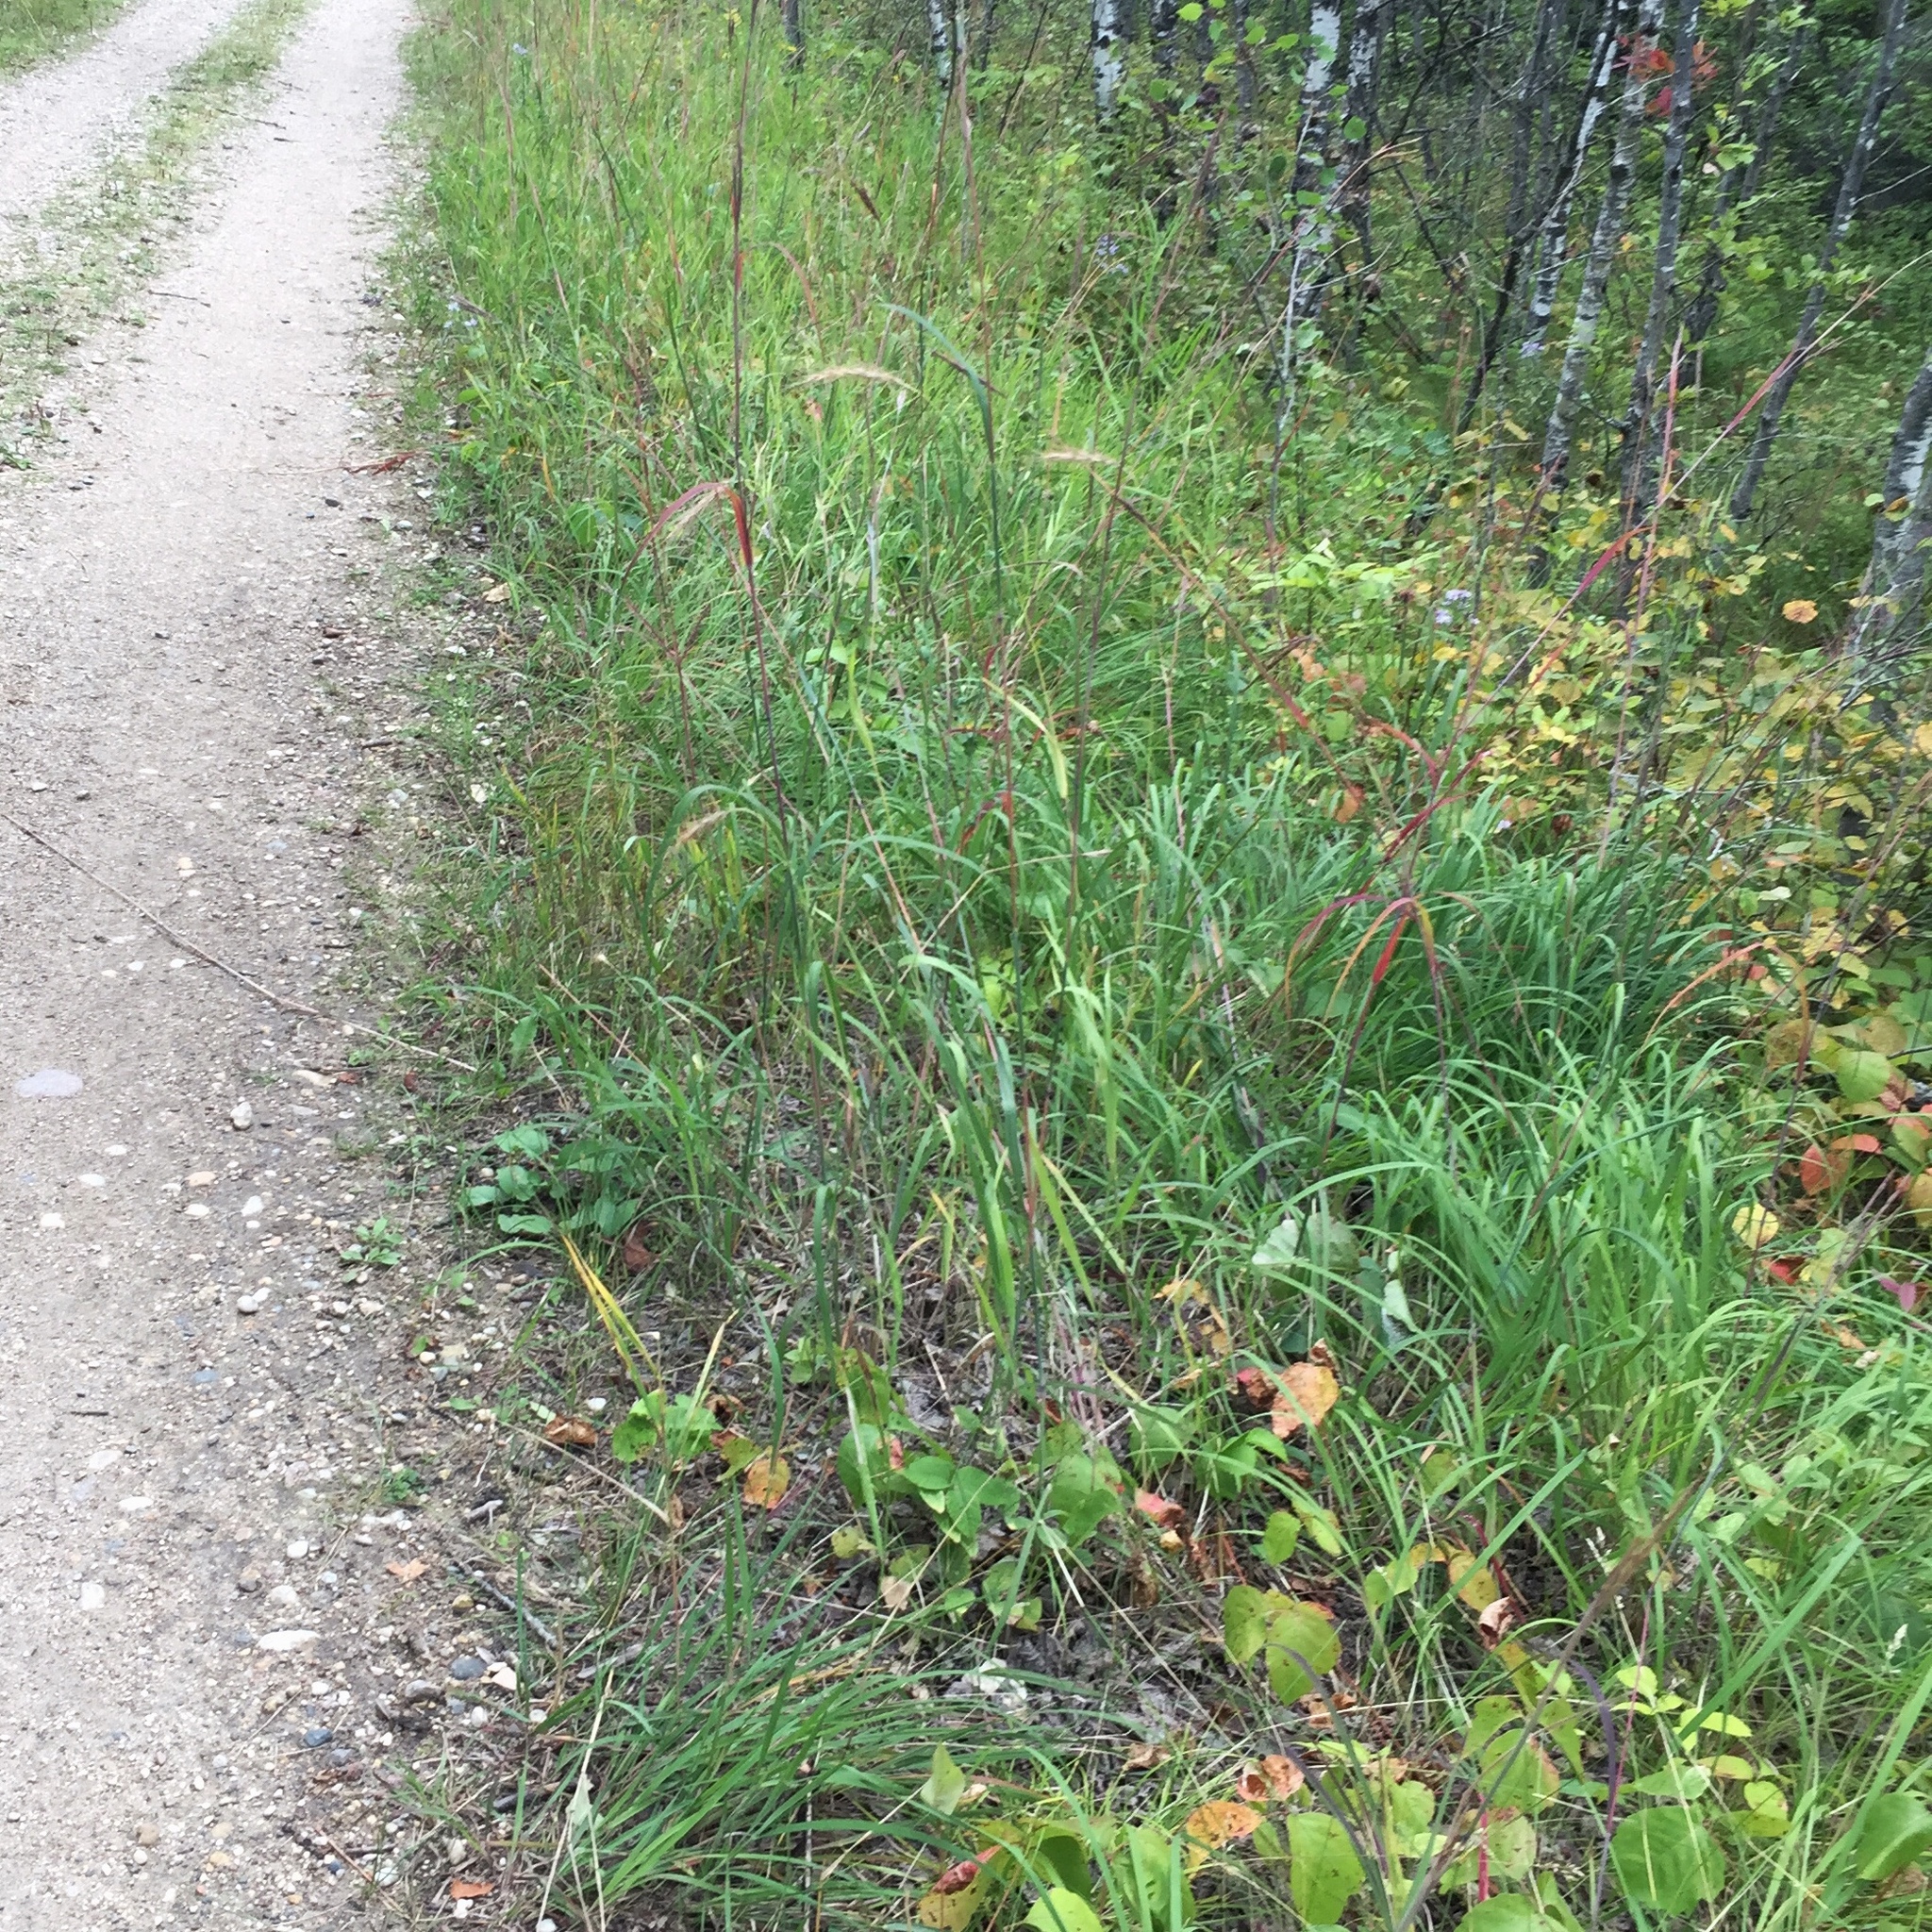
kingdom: Plantae
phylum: Tracheophyta
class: Liliopsida
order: Poales
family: Poaceae
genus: Andropogon
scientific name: Andropogon gerardi
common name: Big bluestem
